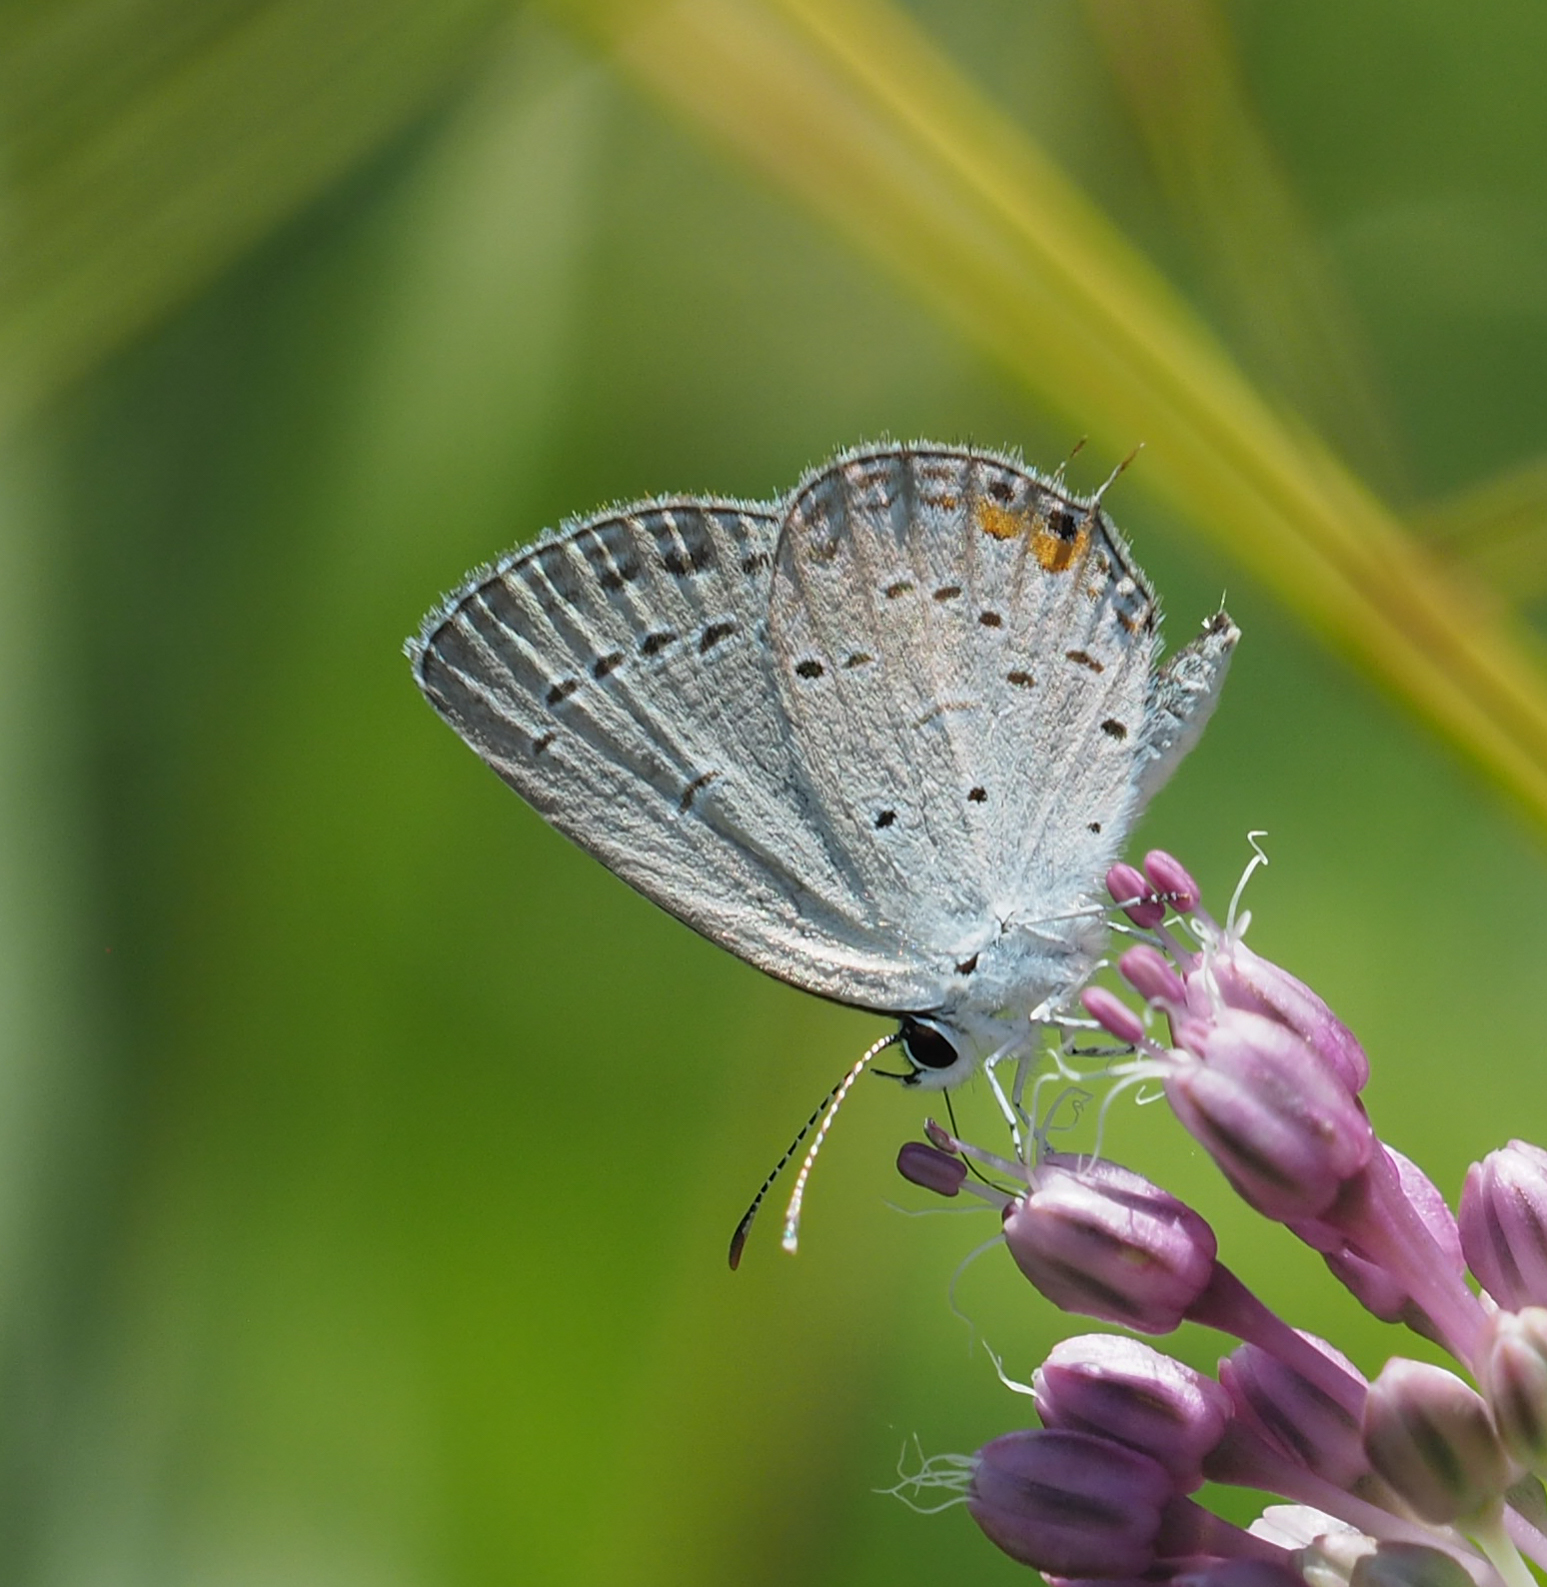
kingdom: Animalia
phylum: Arthropoda
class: Insecta
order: Lepidoptera
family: Lycaenidae
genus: Elkalyce
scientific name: Elkalyce comyntas
